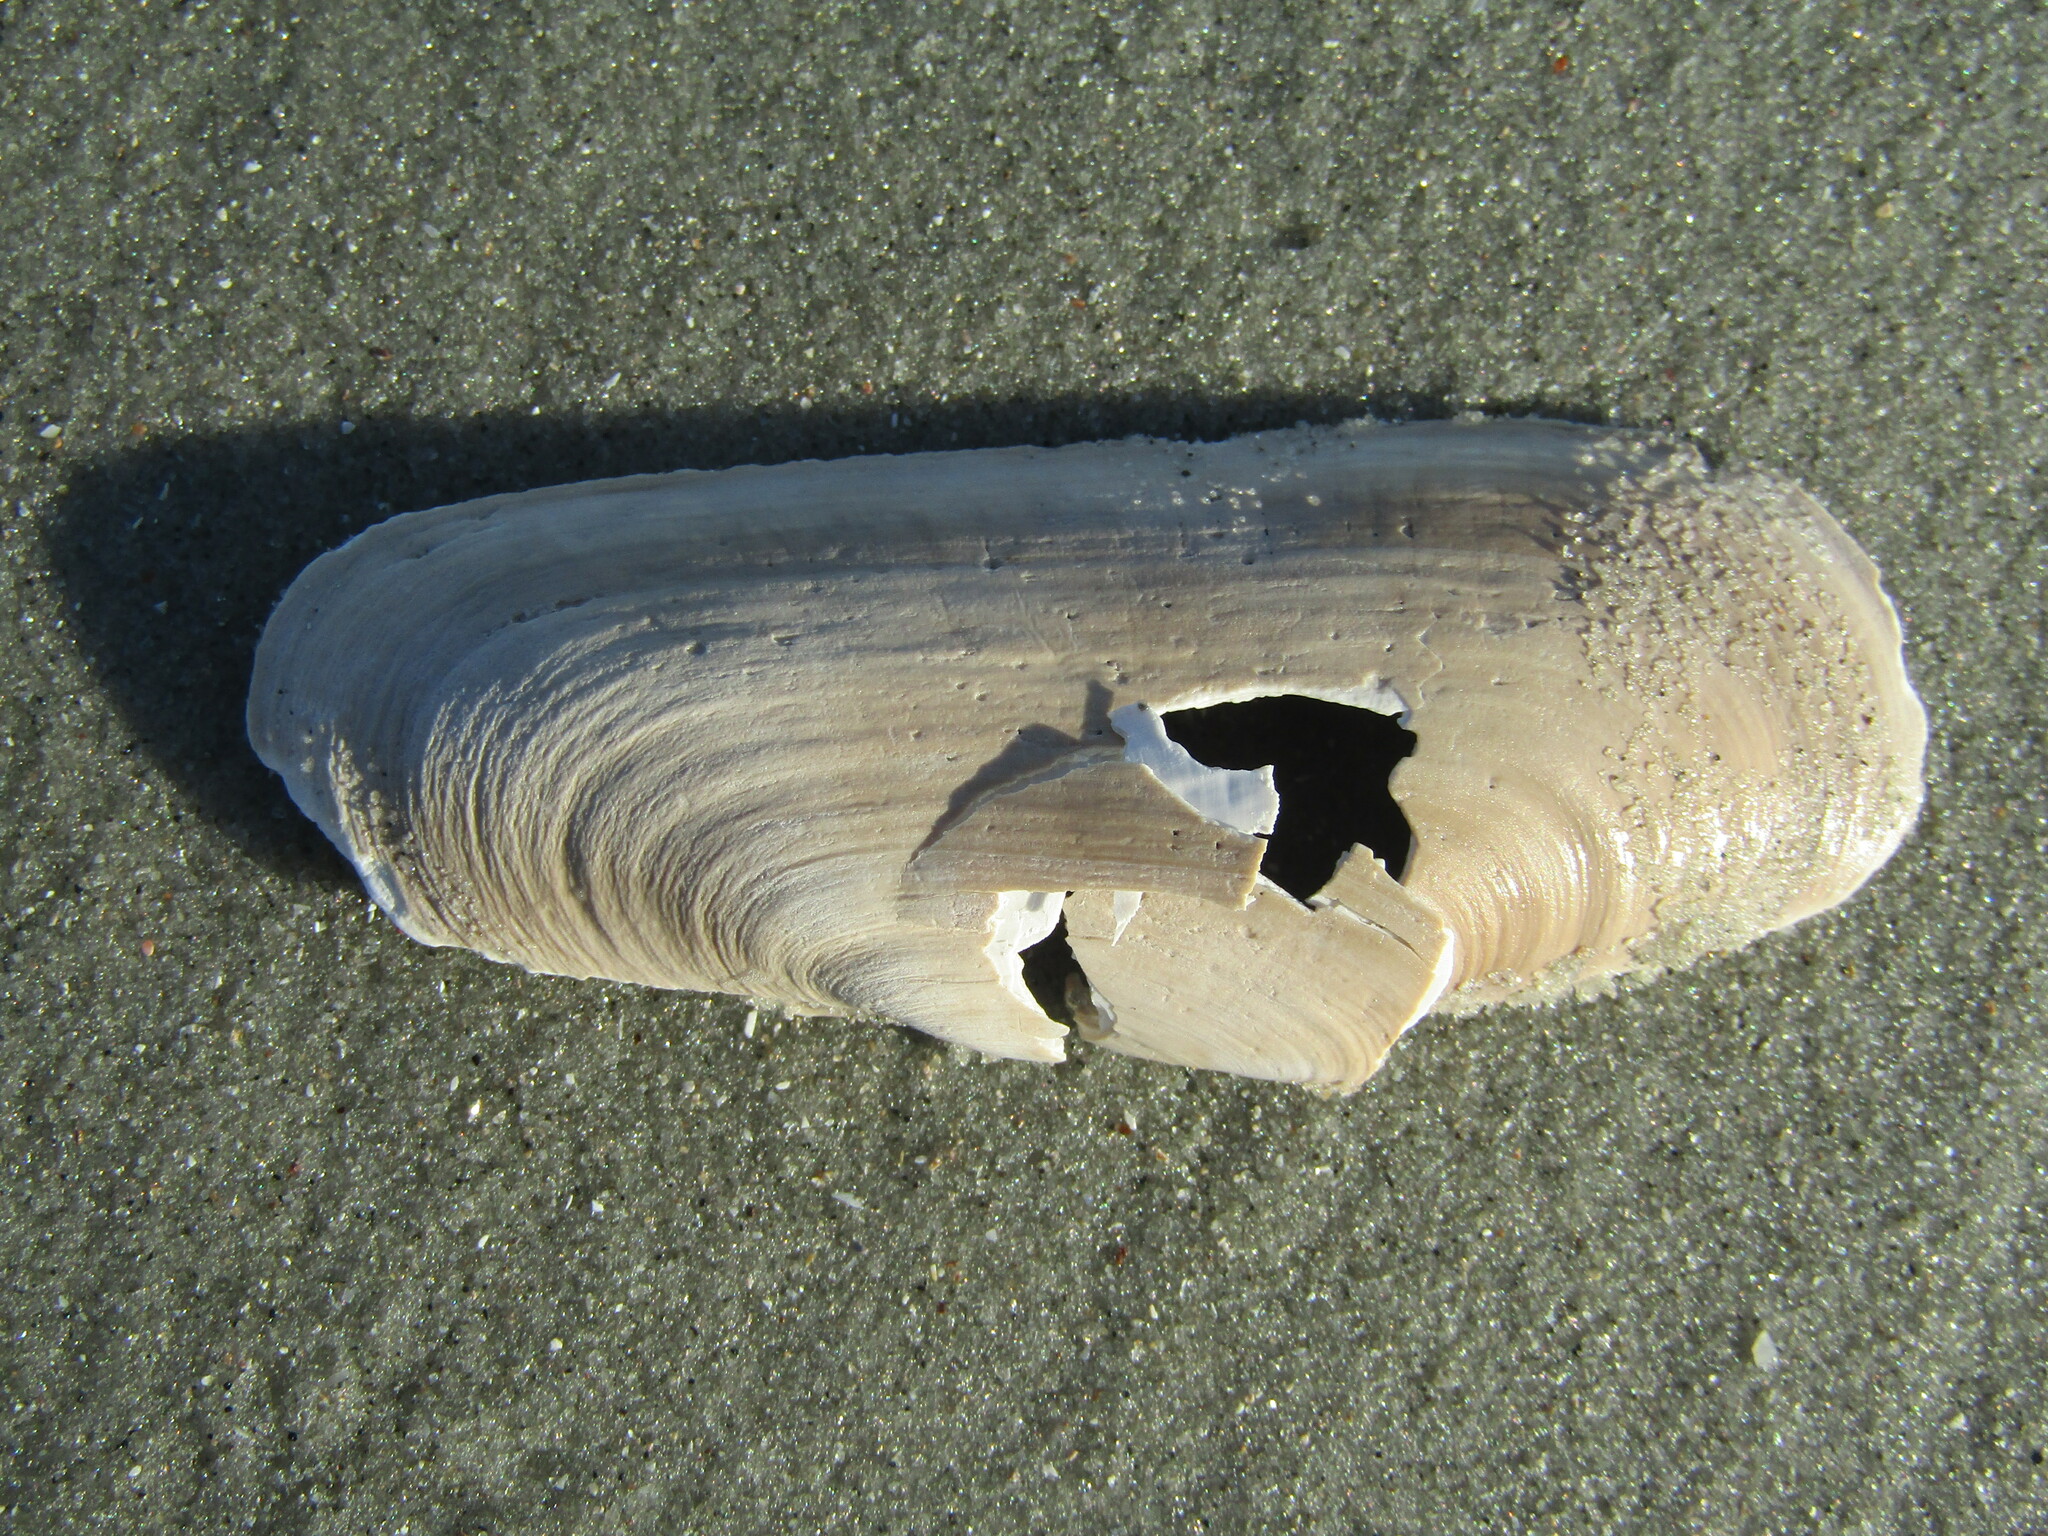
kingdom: Animalia
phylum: Mollusca
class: Bivalvia
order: Cardiida
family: Solecurtidae
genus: Tagelus
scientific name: Tagelus plebeius
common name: Stout tagelus
